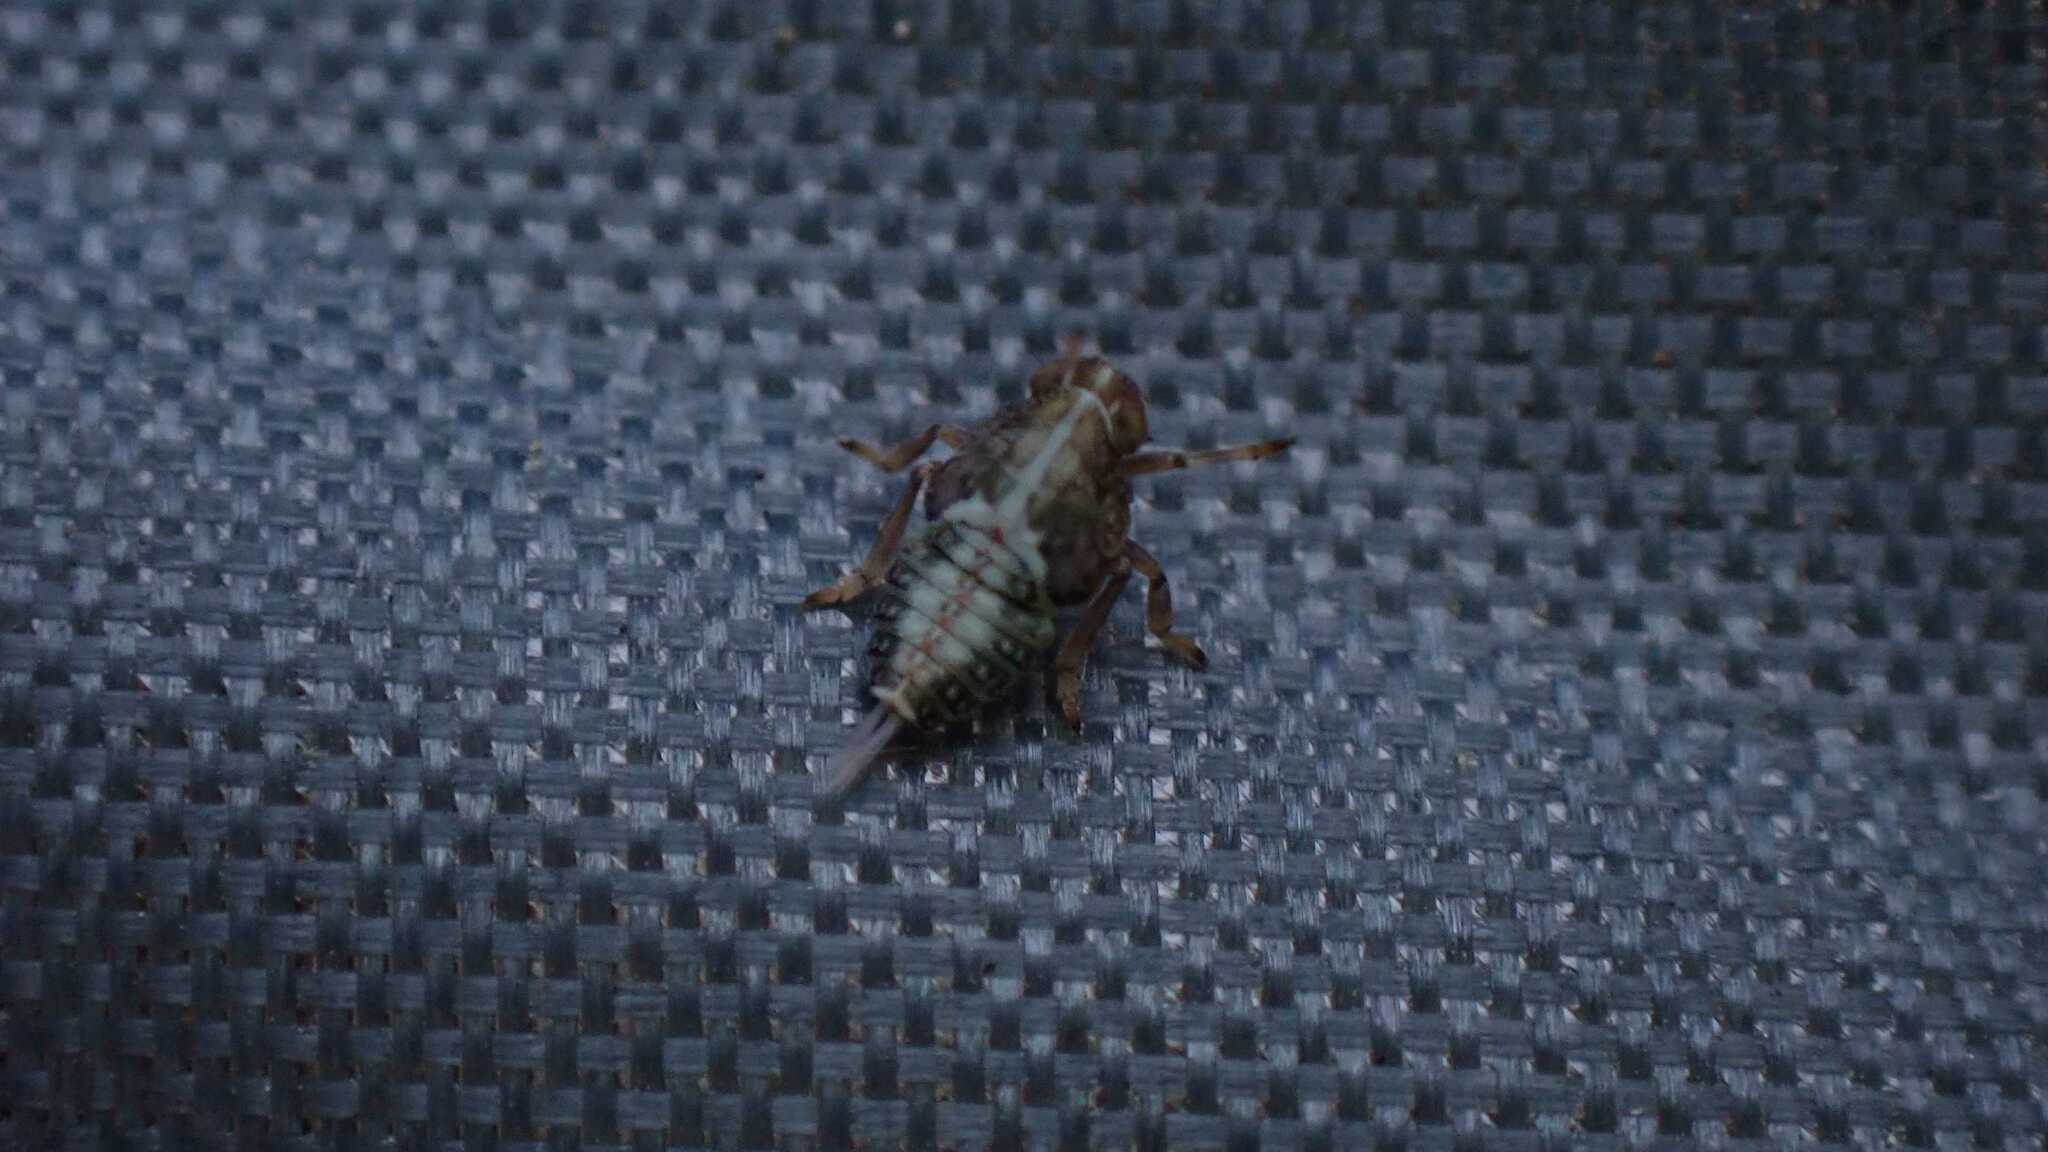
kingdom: Animalia
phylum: Arthropoda
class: Insecta
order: Hemiptera
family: Issidae
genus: Issus
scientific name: Issus
